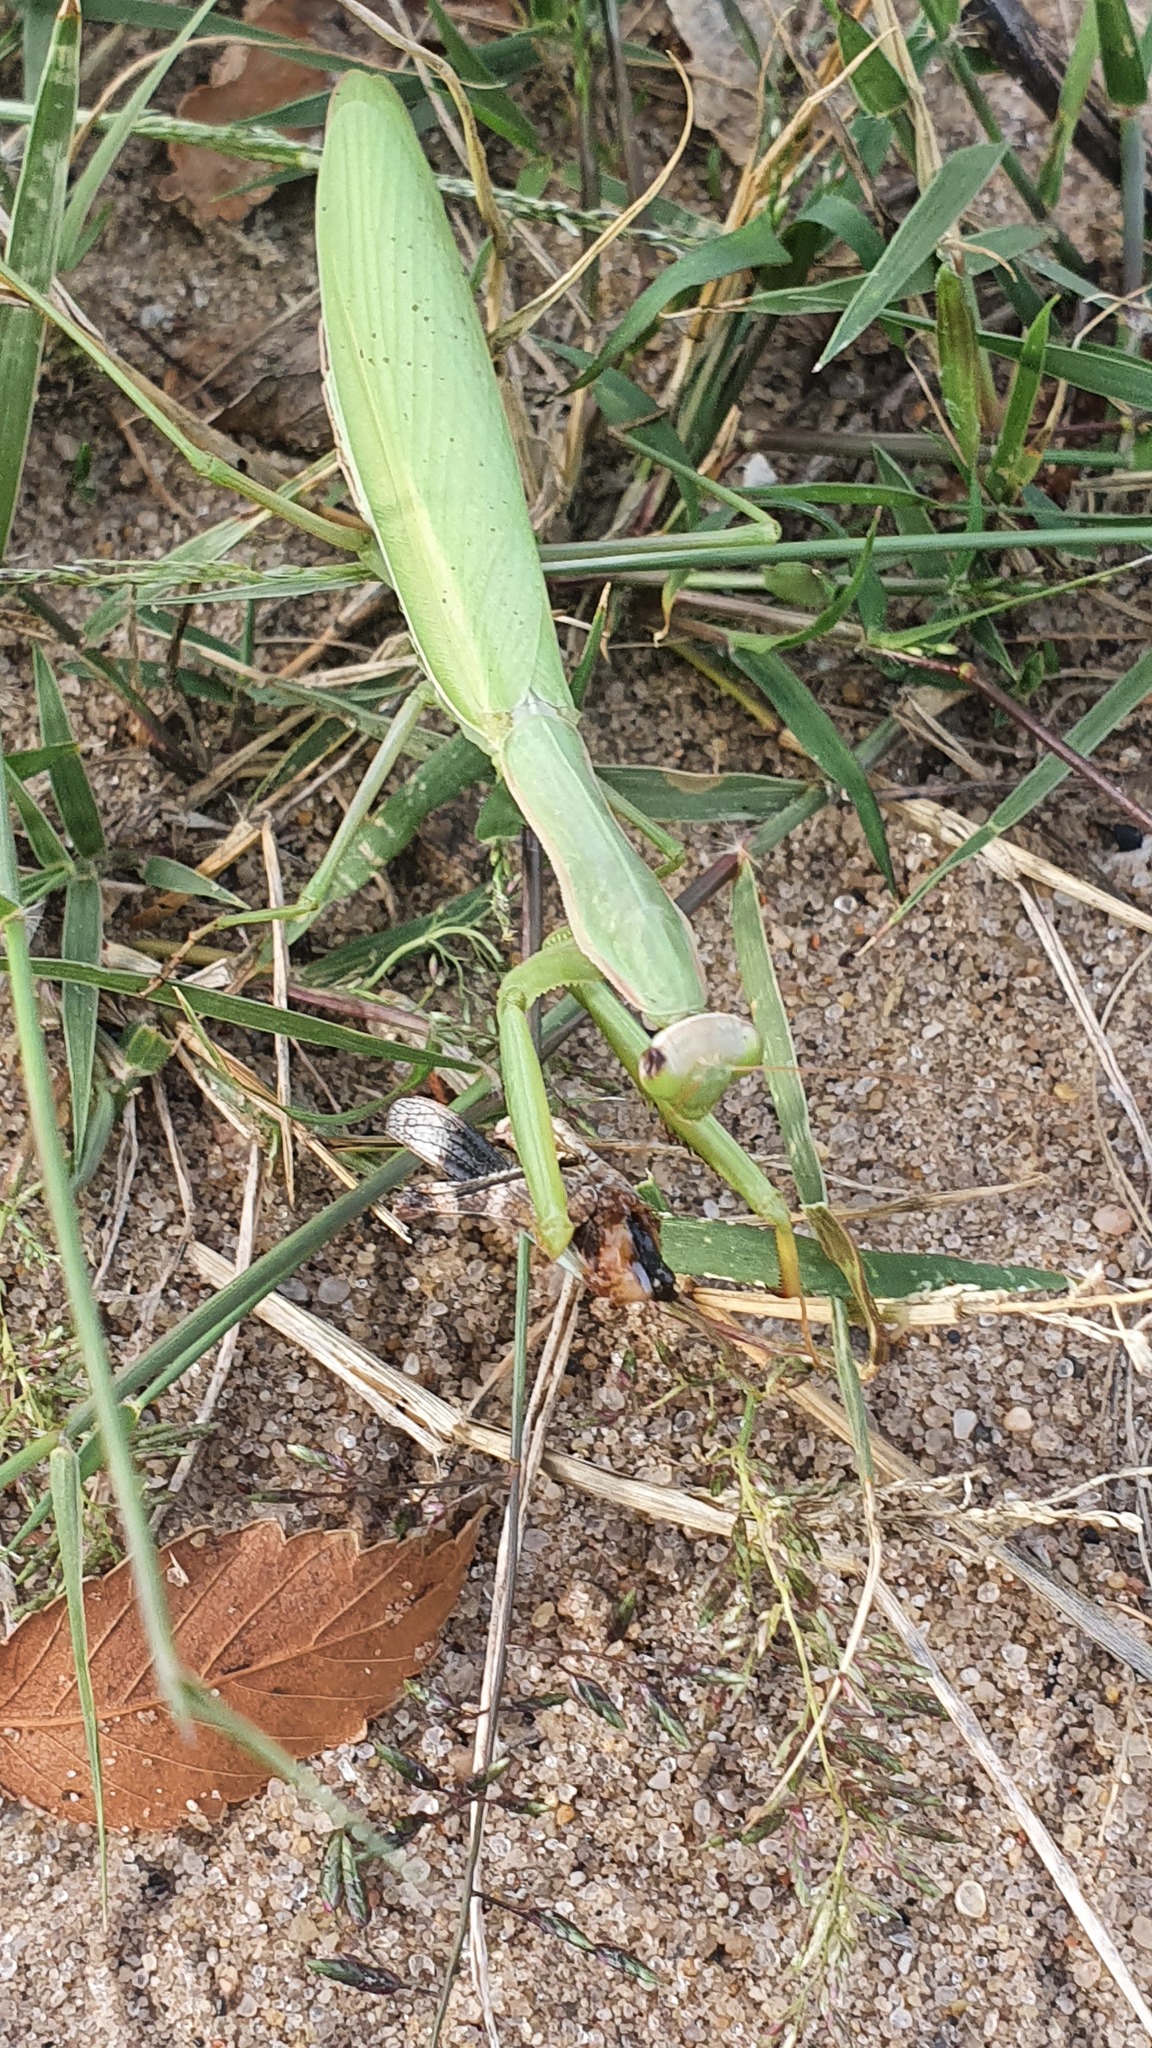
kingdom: Animalia
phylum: Arthropoda
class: Insecta
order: Mantodea
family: Mantidae
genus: Mantis
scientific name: Mantis religiosa
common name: Praying mantis
